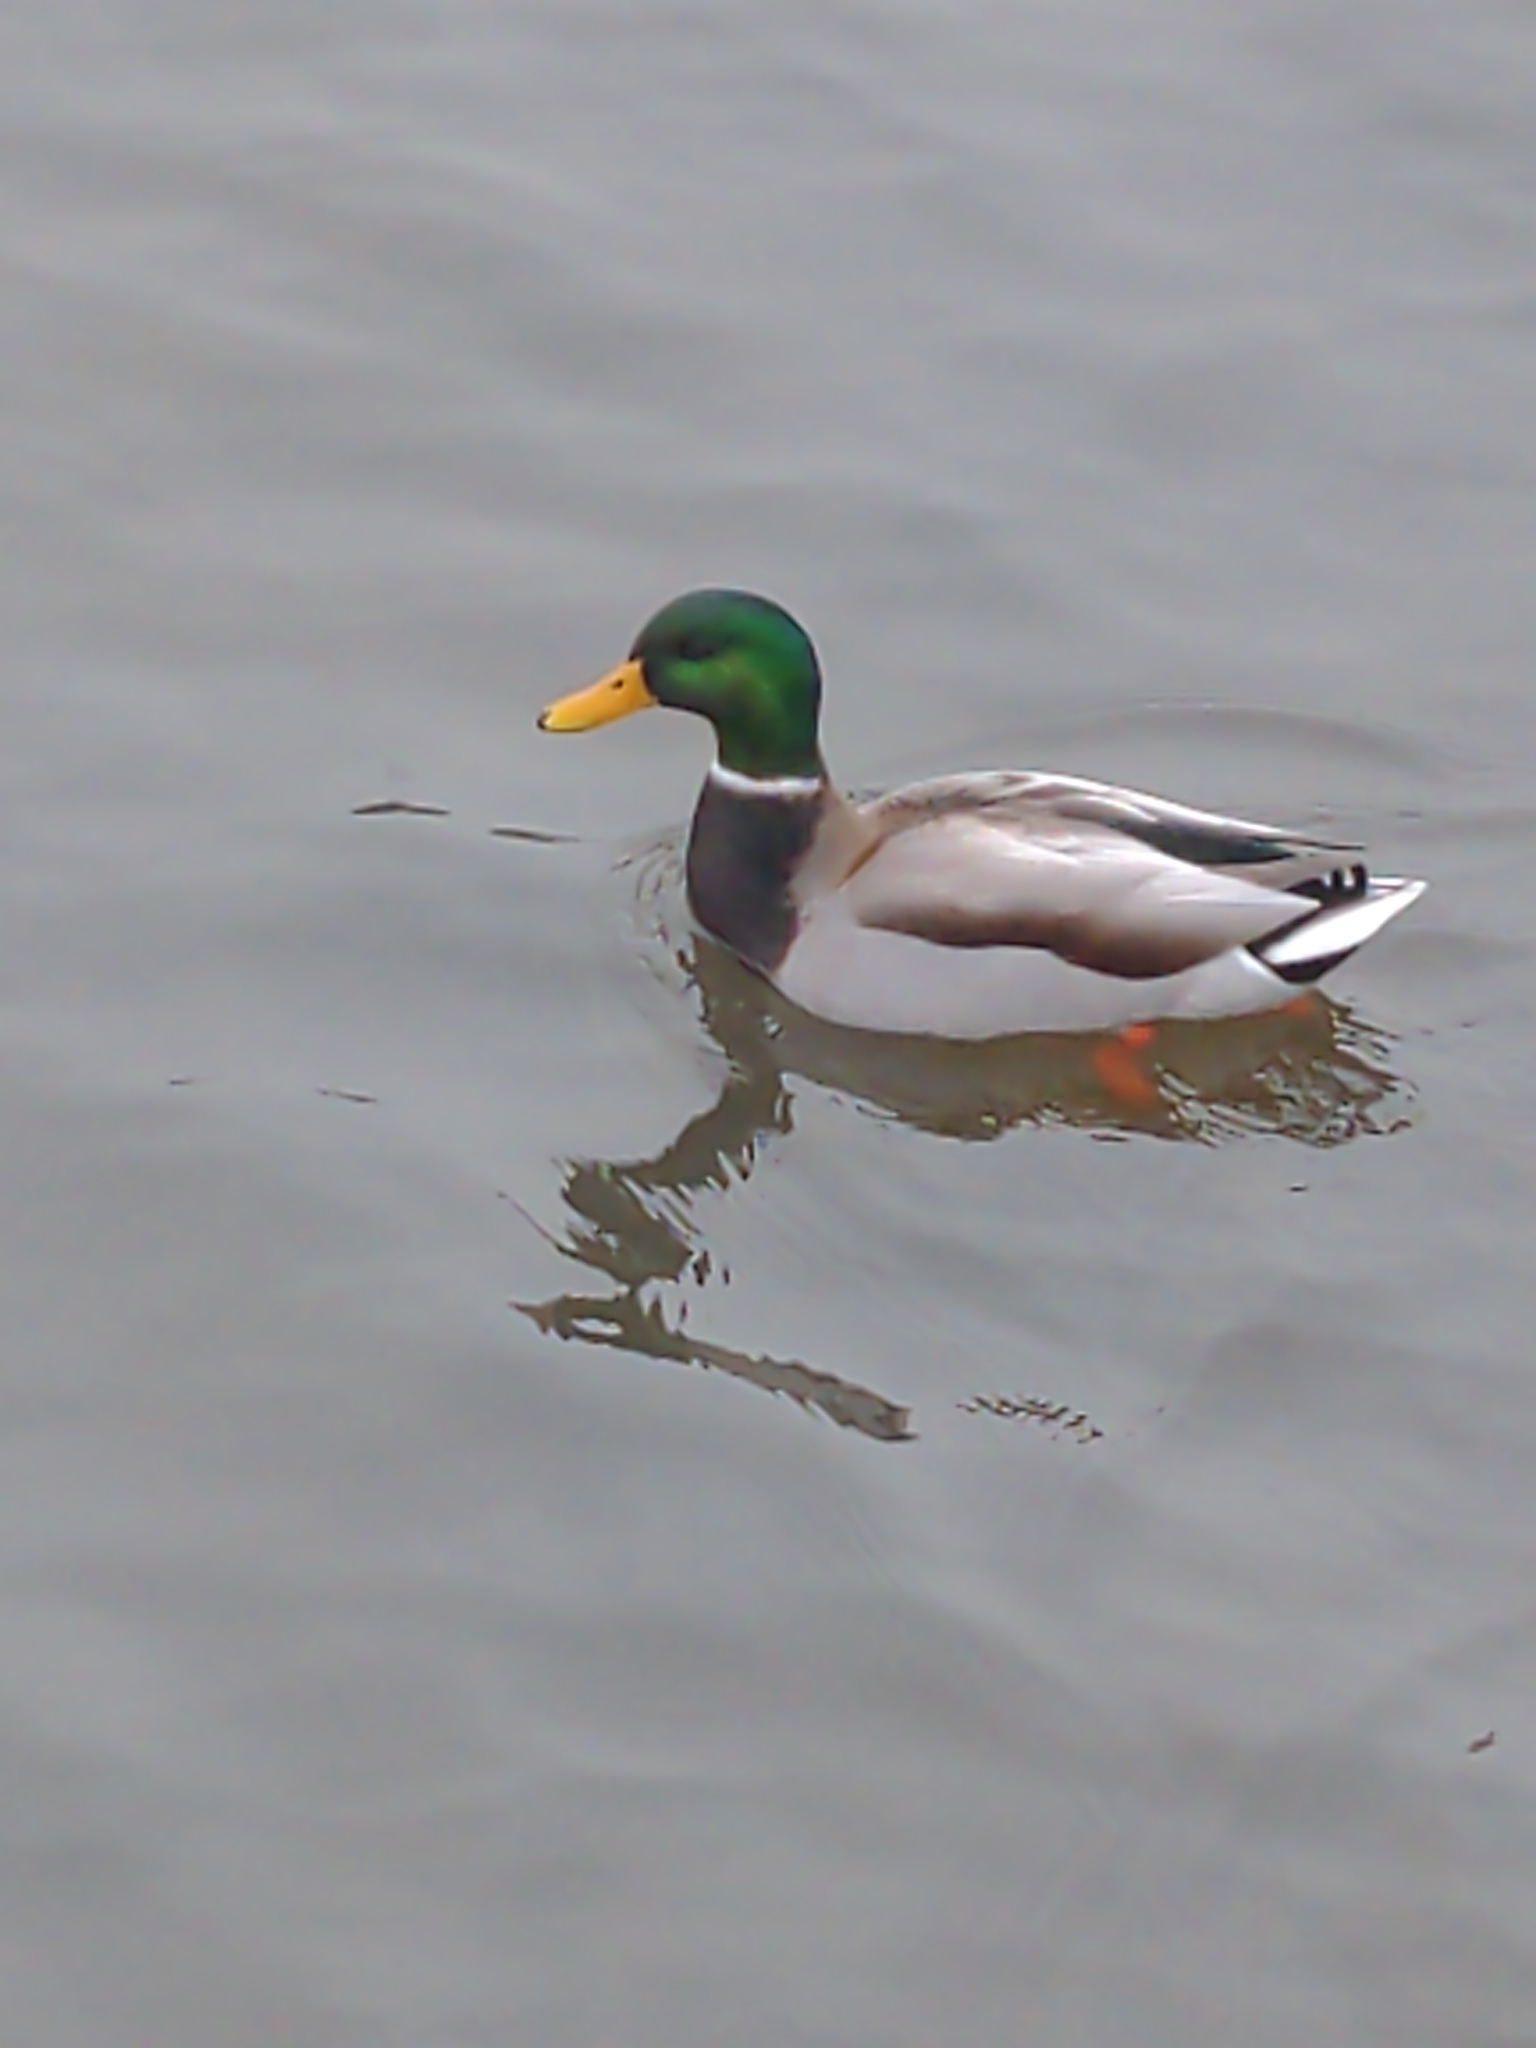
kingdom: Animalia
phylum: Chordata
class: Aves
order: Anseriformes
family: Anatidae
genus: Anas
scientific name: Anas platyrhynchos
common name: Mallard
